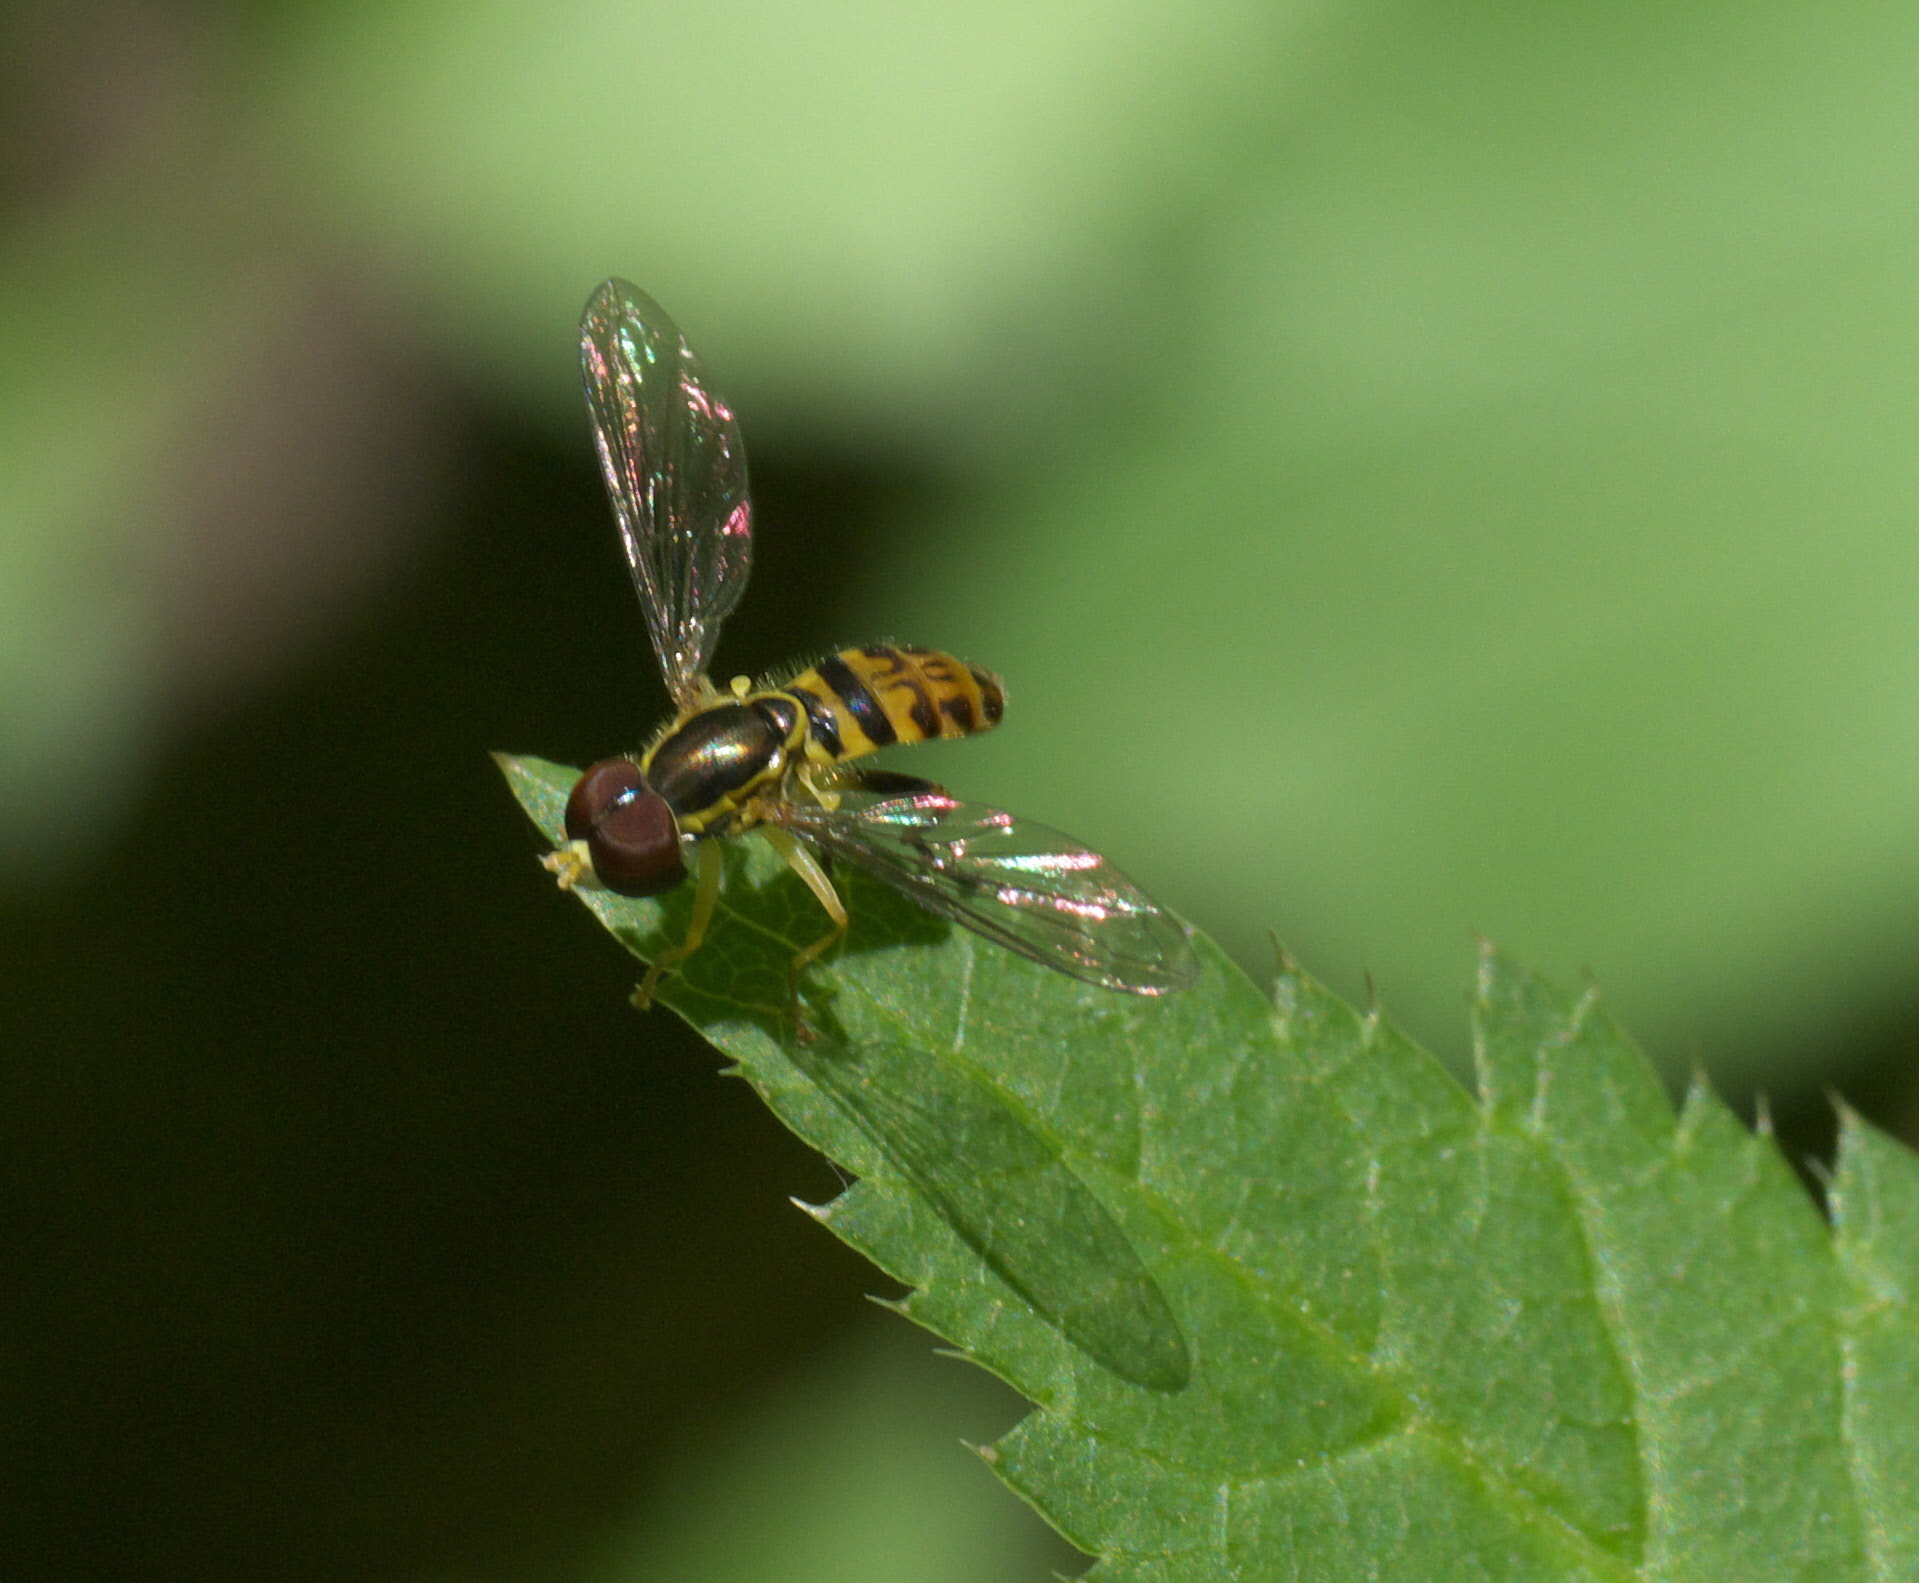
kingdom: Animalia
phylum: Arthropoda
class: Insecta
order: Diptera
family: Syrphidae
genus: Toxomerus
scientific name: Toxomerus geminatus
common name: Eastern calligrapher
